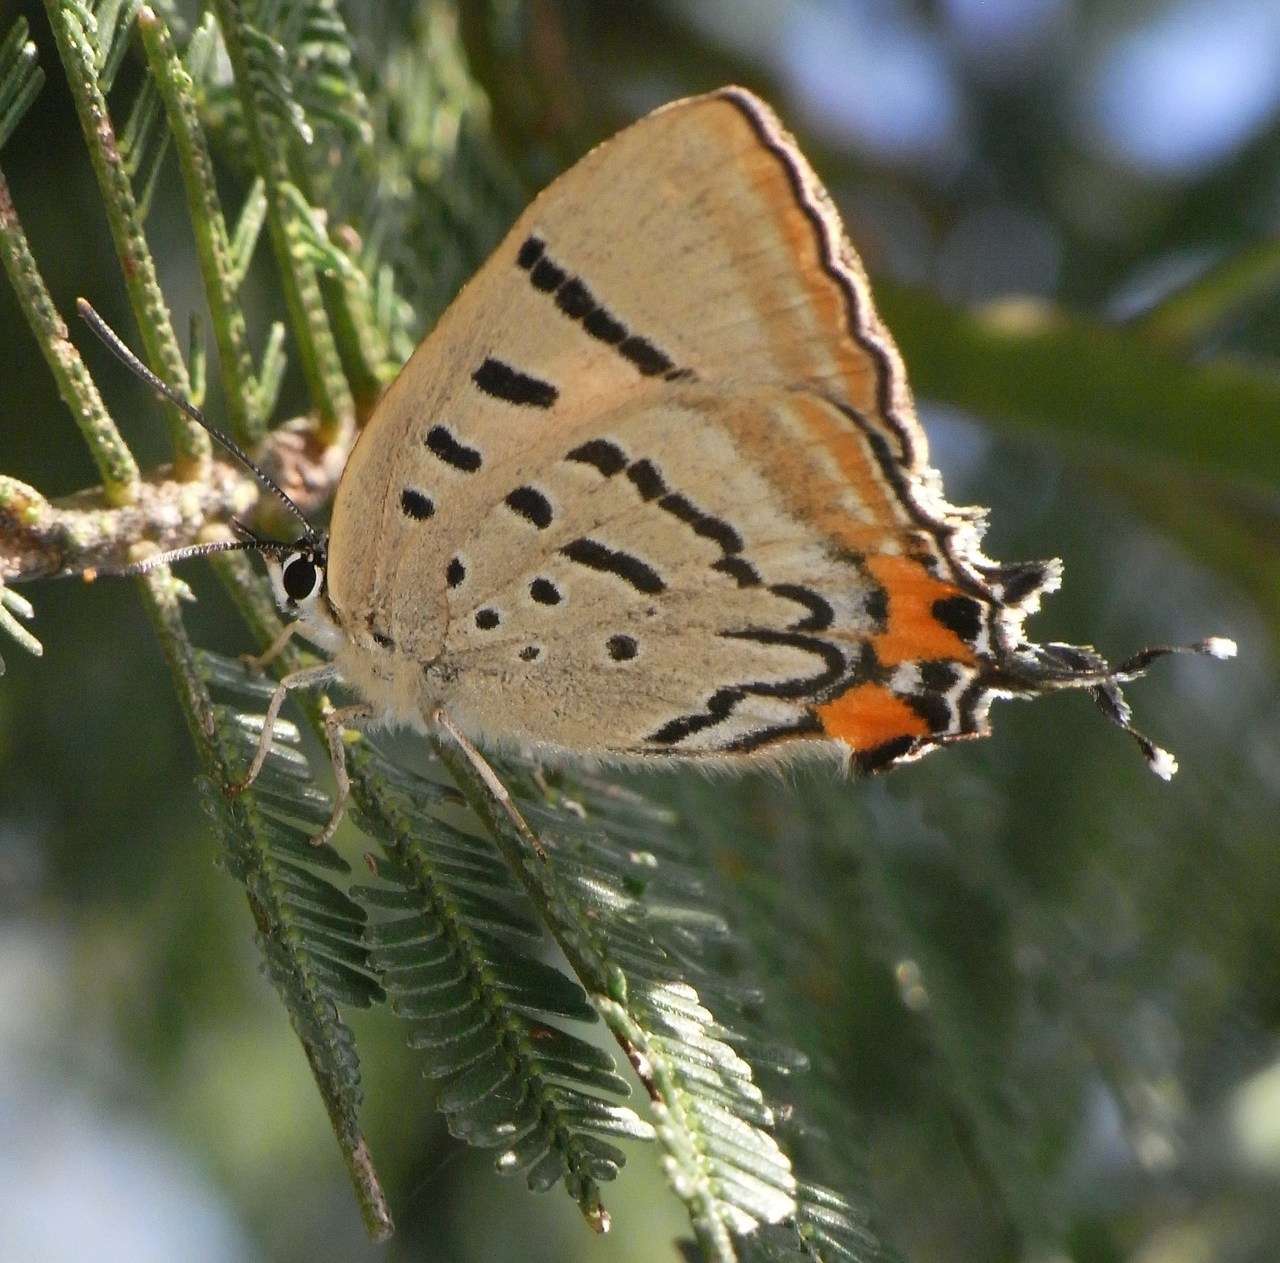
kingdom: Animalia
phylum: Arthropoda
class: Insecta
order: Lepidoptera
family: Lycaenidae
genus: Jalmenus
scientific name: Jalmenus evagoras
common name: Common imperial blue
